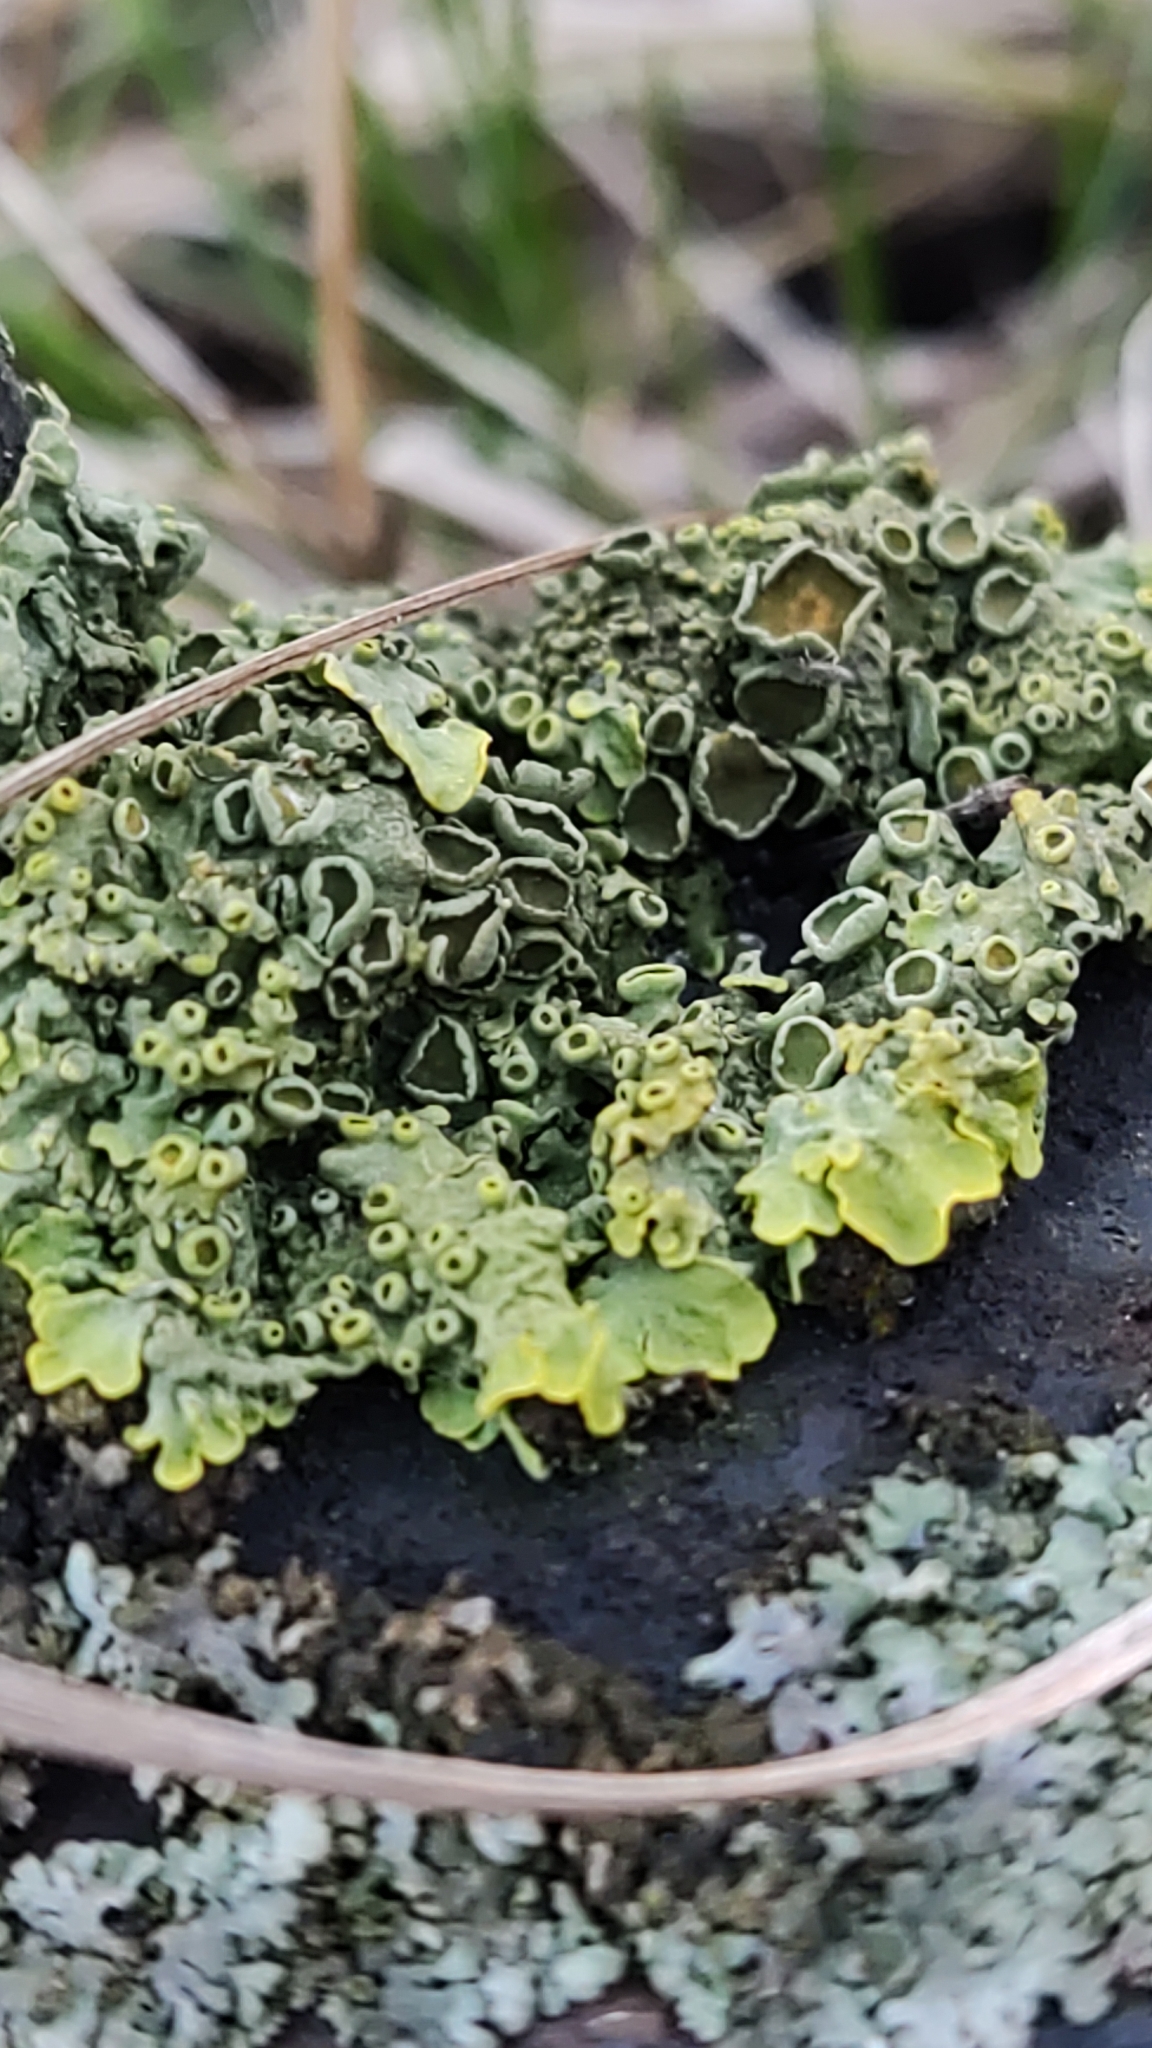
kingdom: Fungi
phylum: Ascomycota
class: Lecanoromycetes
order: Teloschistales
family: Teloschistaceae
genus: Xanthoria
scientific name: Xanthoria parietina
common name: Common orange lichen
